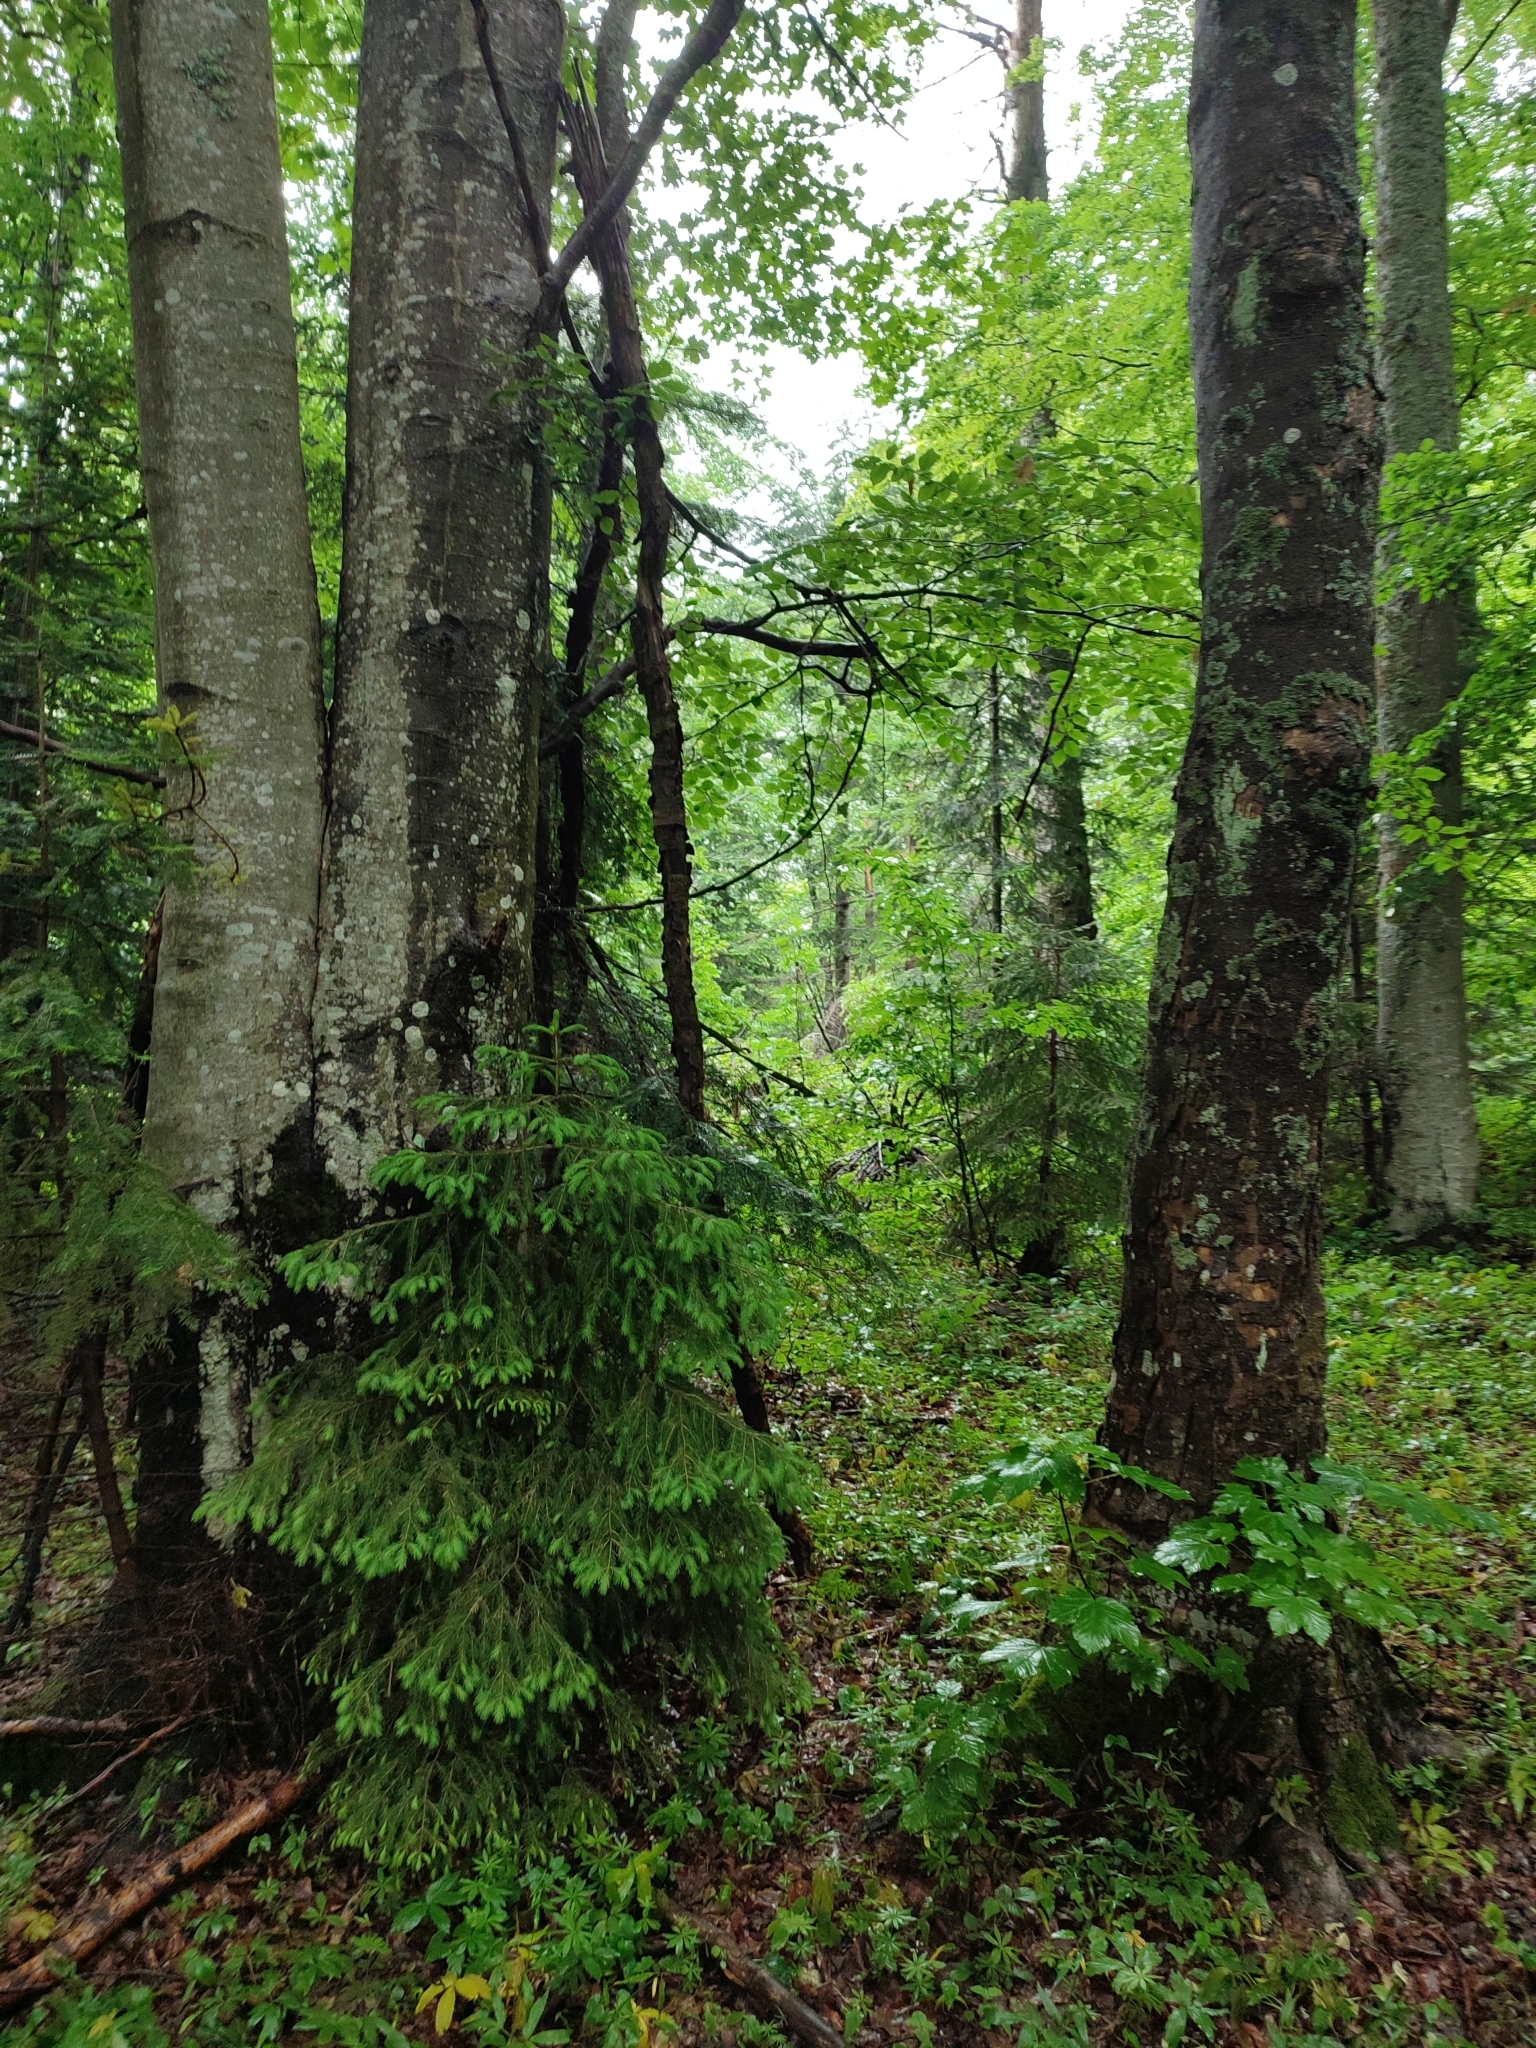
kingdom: Plantae
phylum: Tracheophyta
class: Magnoliopsida
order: Fagales
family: Fagaceae
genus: Fagus
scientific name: Fagus sylvatica
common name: Beech
